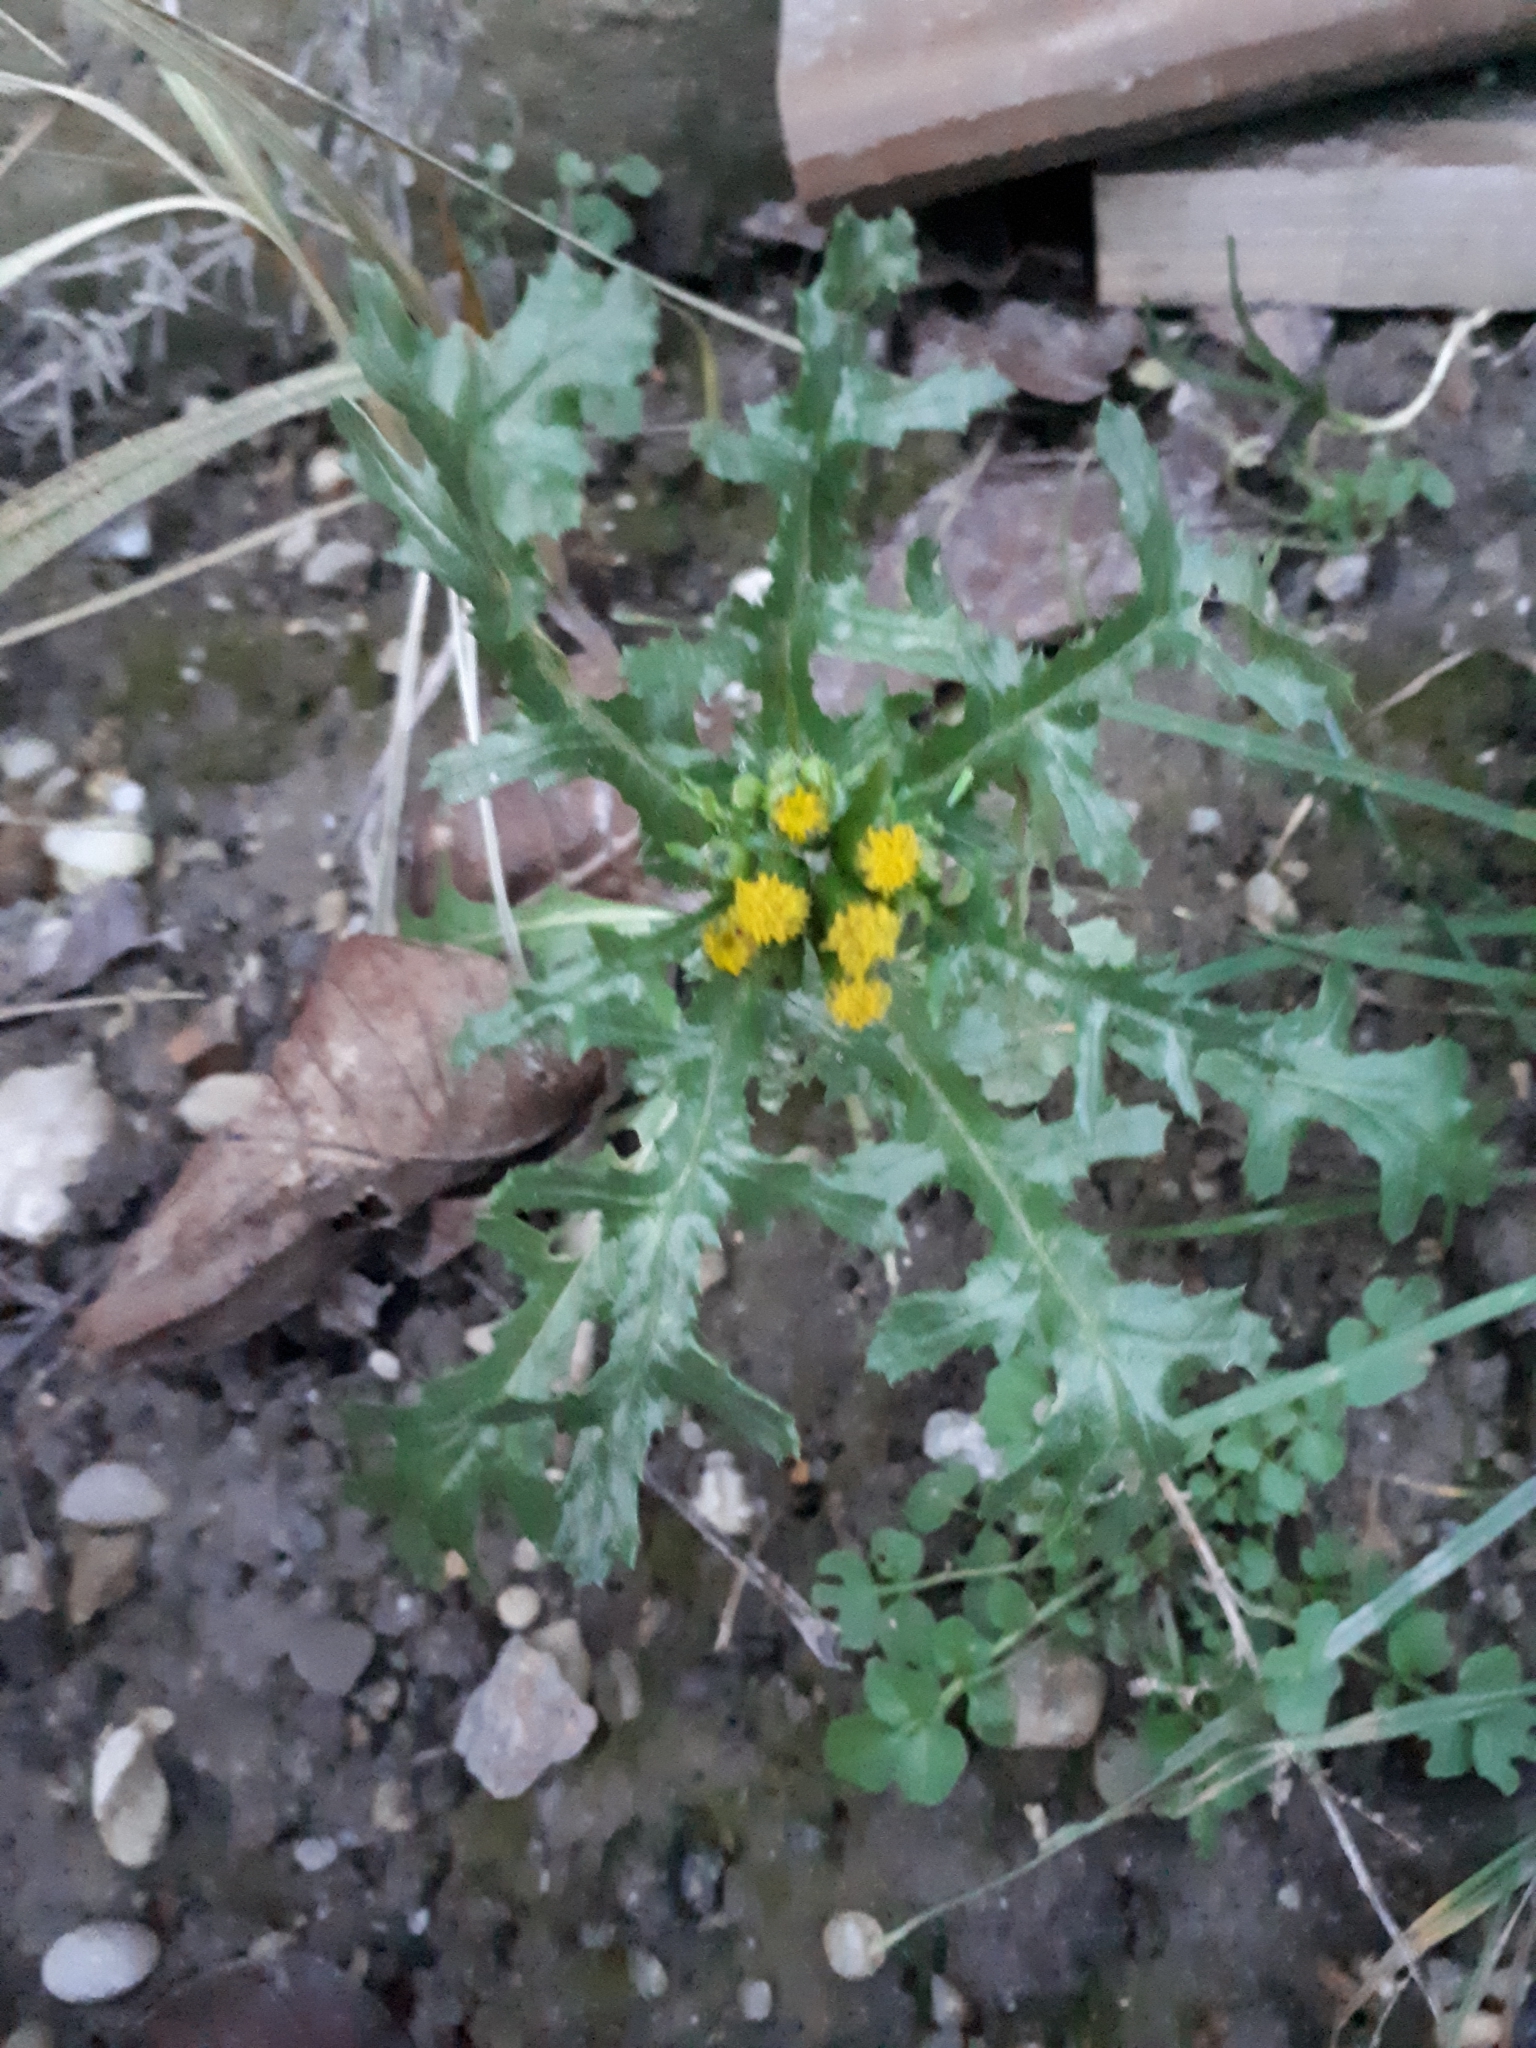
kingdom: Plantae
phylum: Tracheophyta
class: Magnoliopsida
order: Asterales
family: Asteraceae
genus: Senecio
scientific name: Senecio vulgaris
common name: Old-man-in-the-spring
